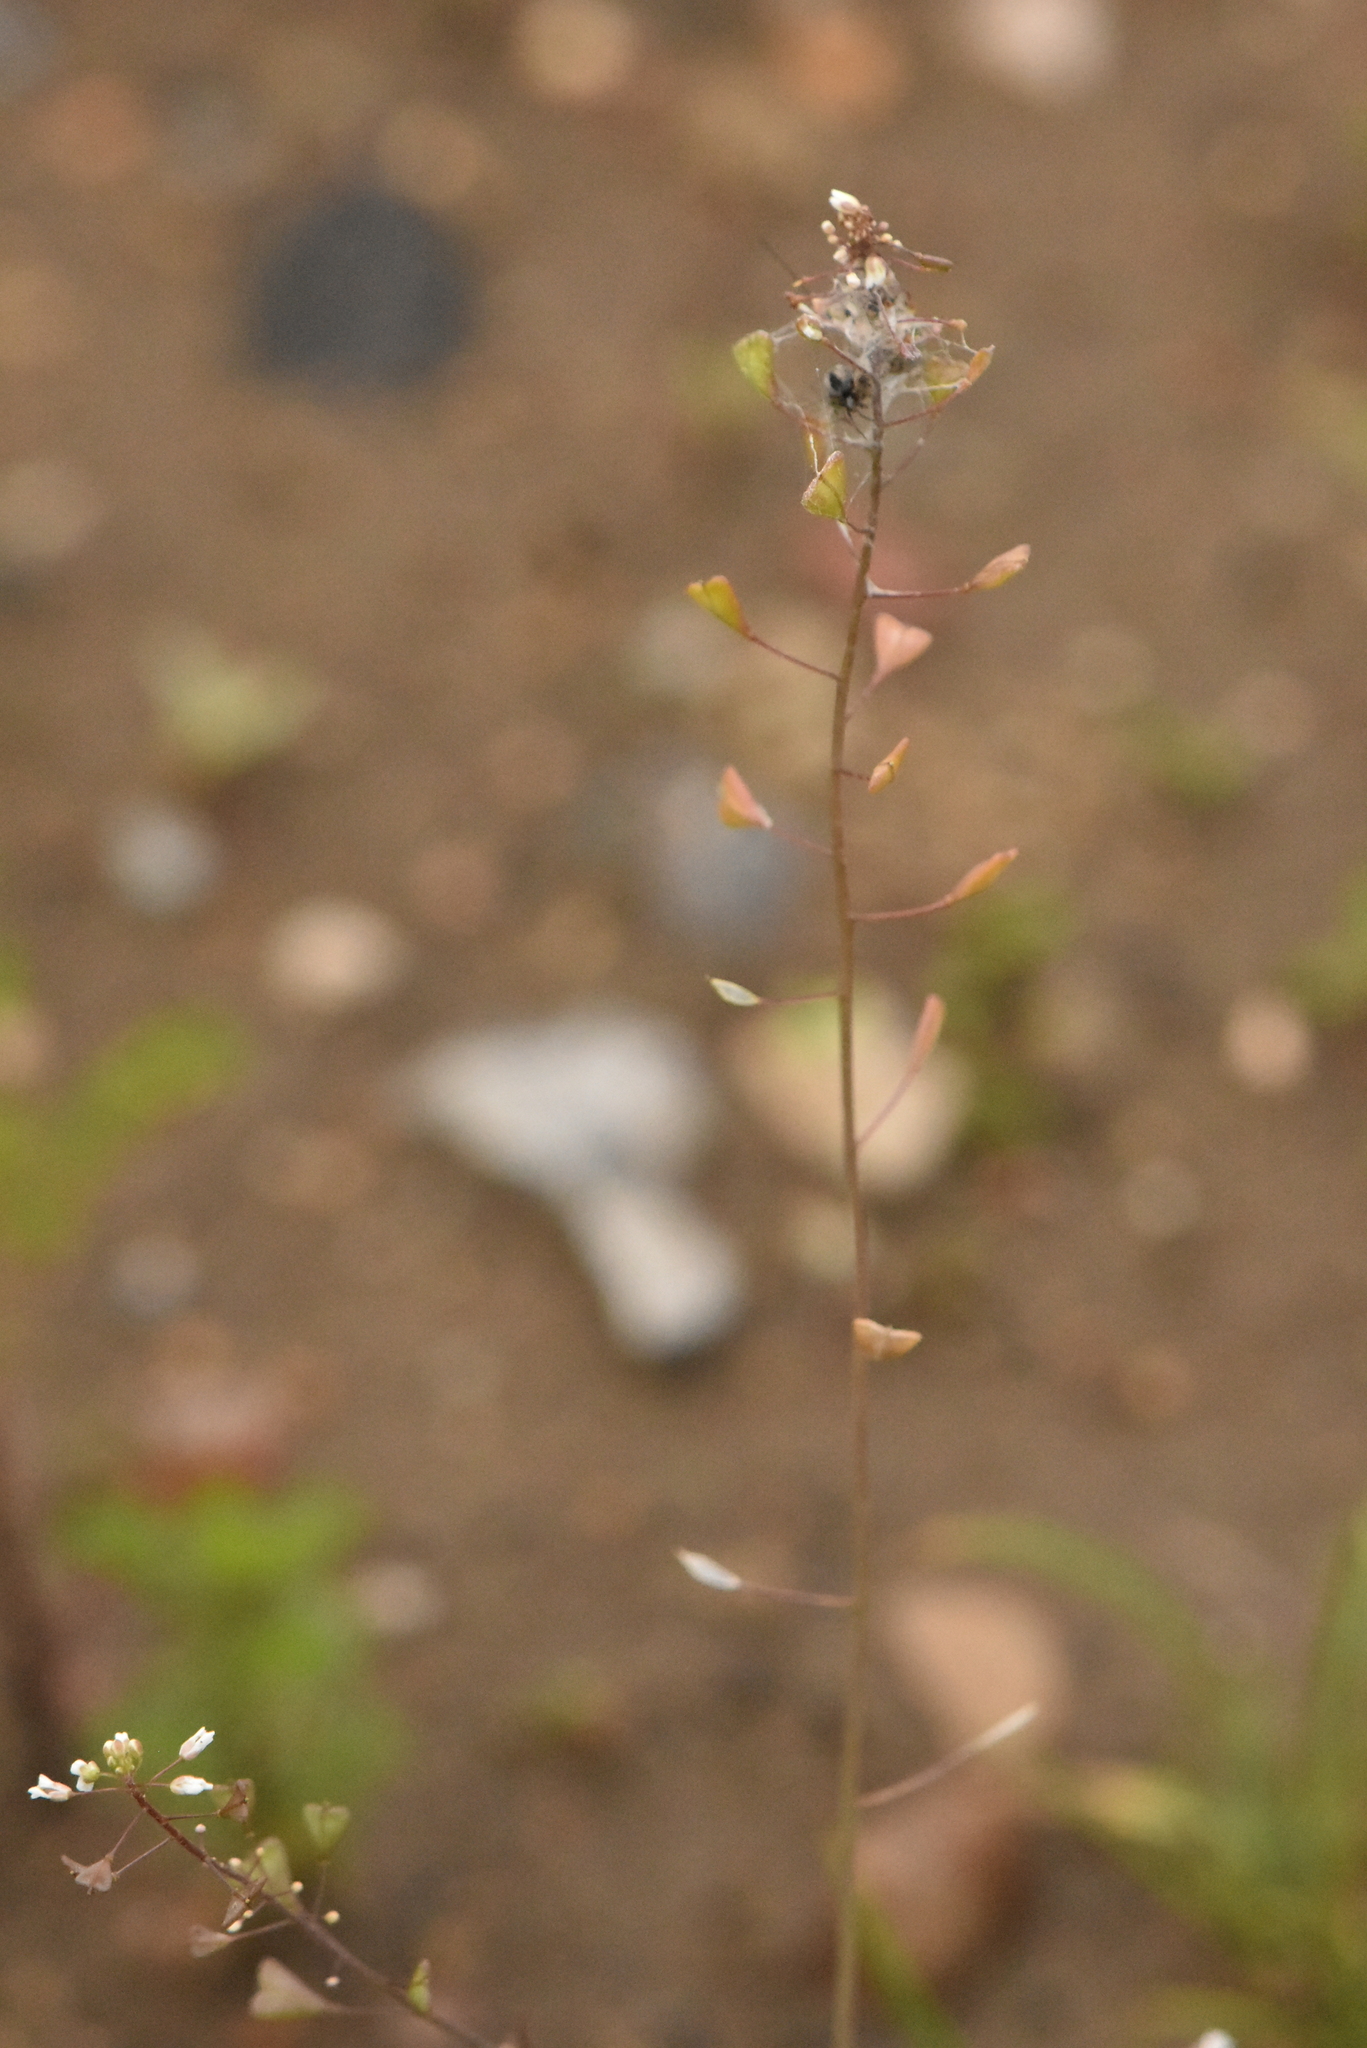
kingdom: Plantae
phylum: Tracheophyta
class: Magnoliopsida
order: Brassicales
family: Brassicaceae
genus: Capsella
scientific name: Capsella bursa-pastoris
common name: Shepherd's purse
